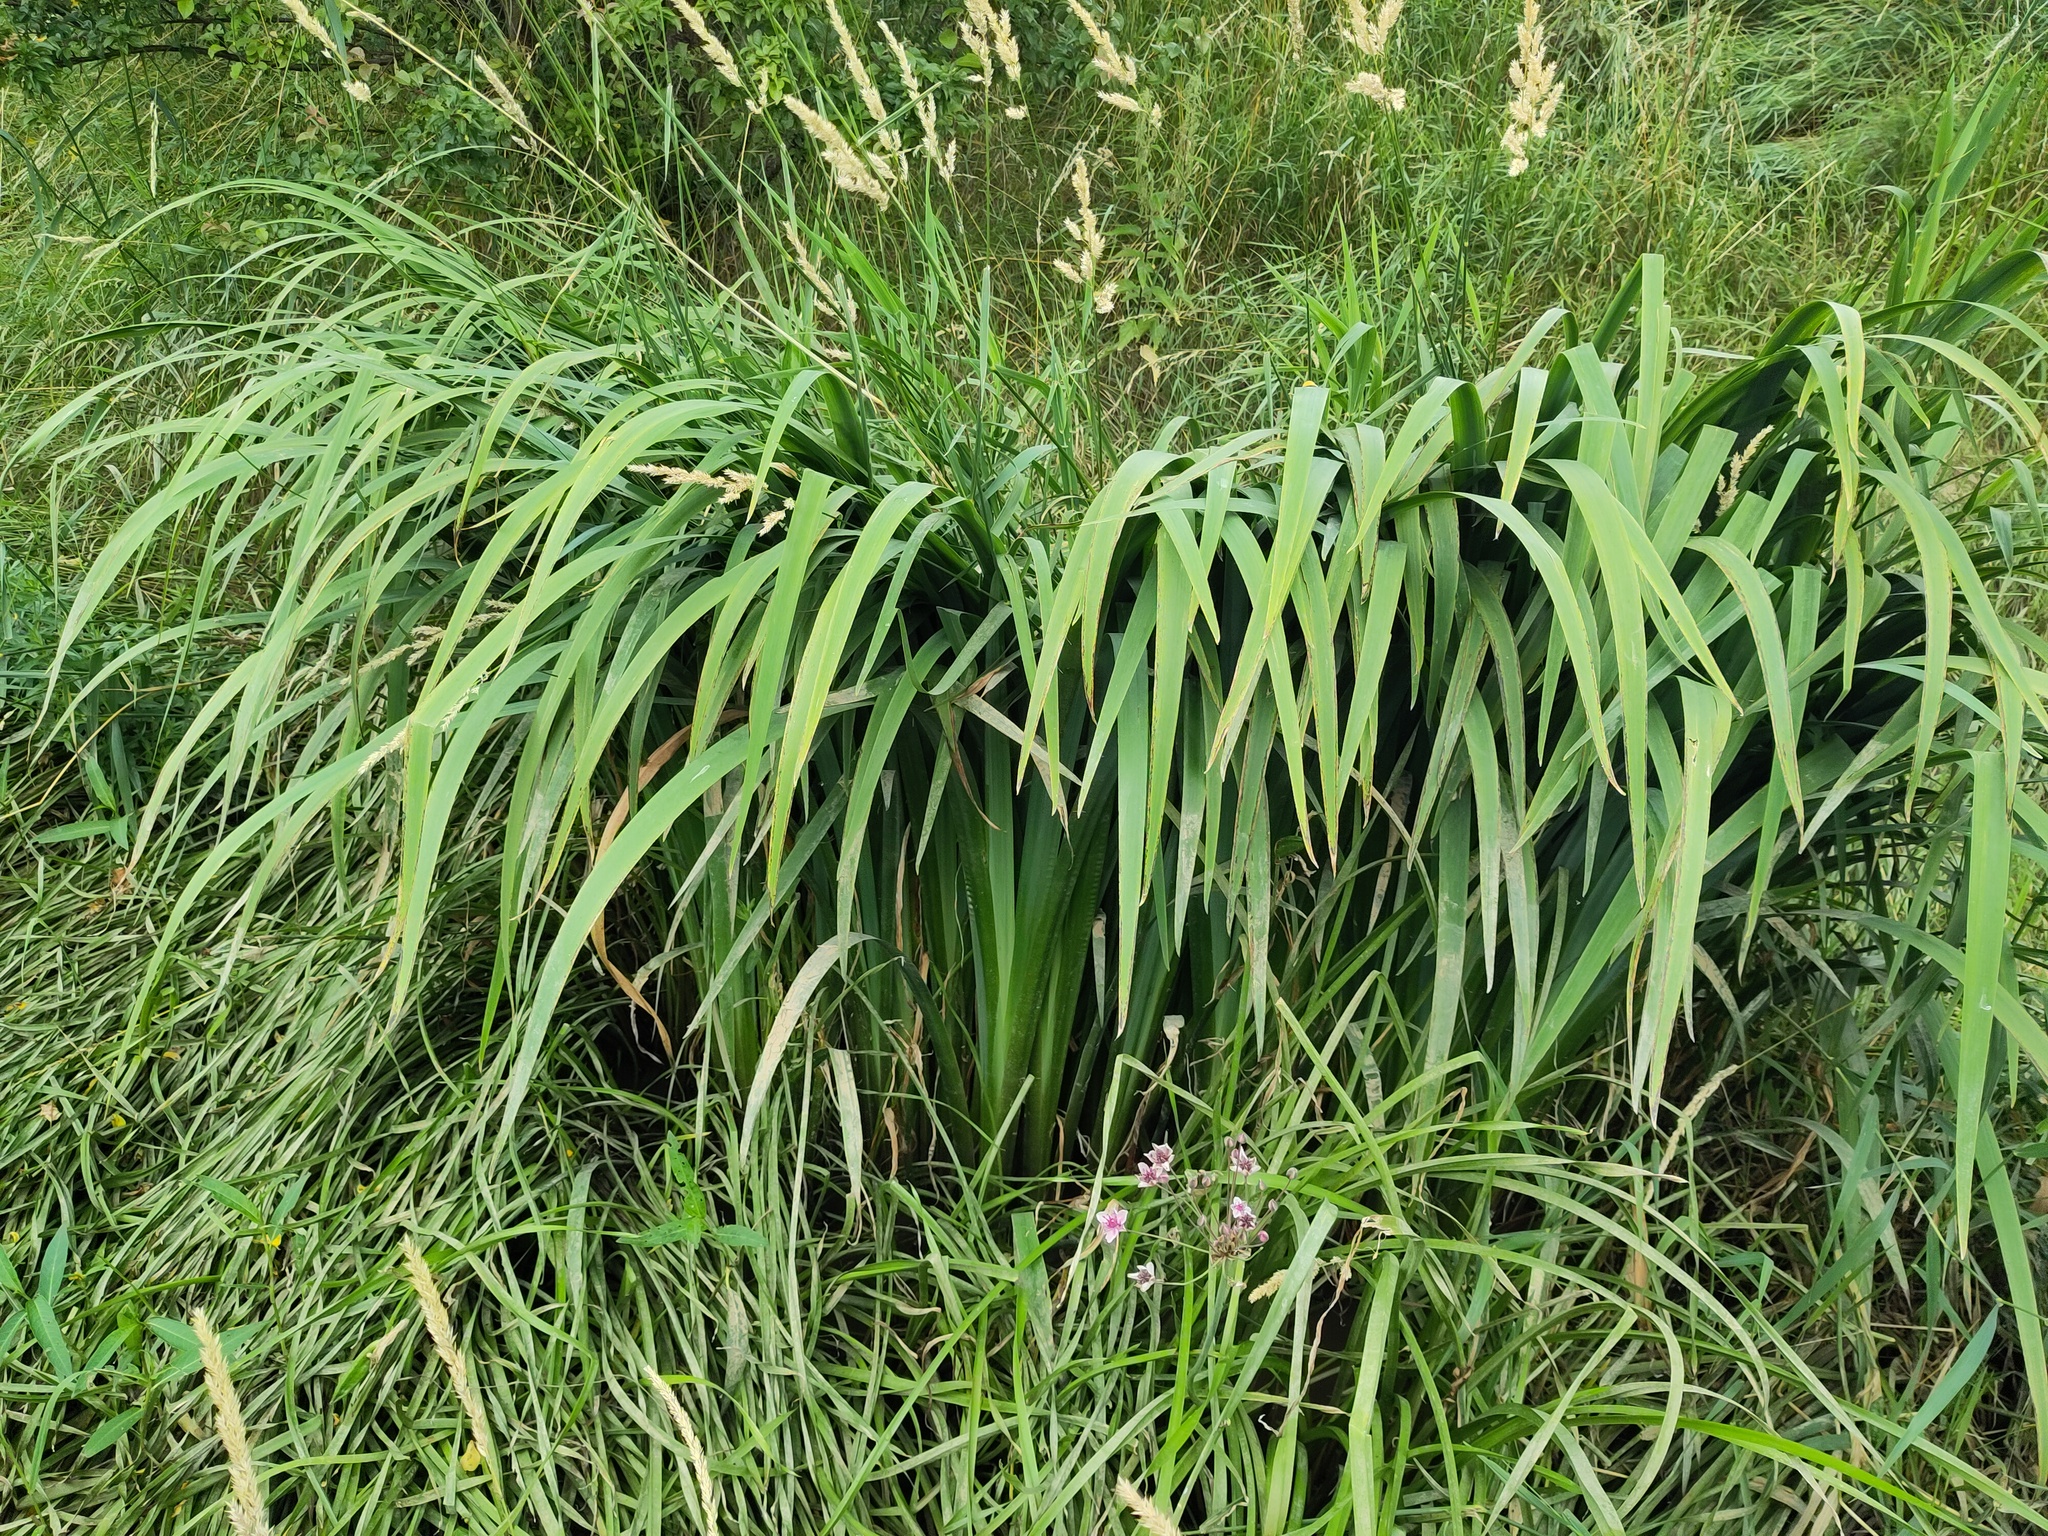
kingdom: Plantae
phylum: Tracheophyta
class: Liliopsida
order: Asparagales
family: Iridaceae
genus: Iris
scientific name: Iris pseudacorus
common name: Yellow flag
